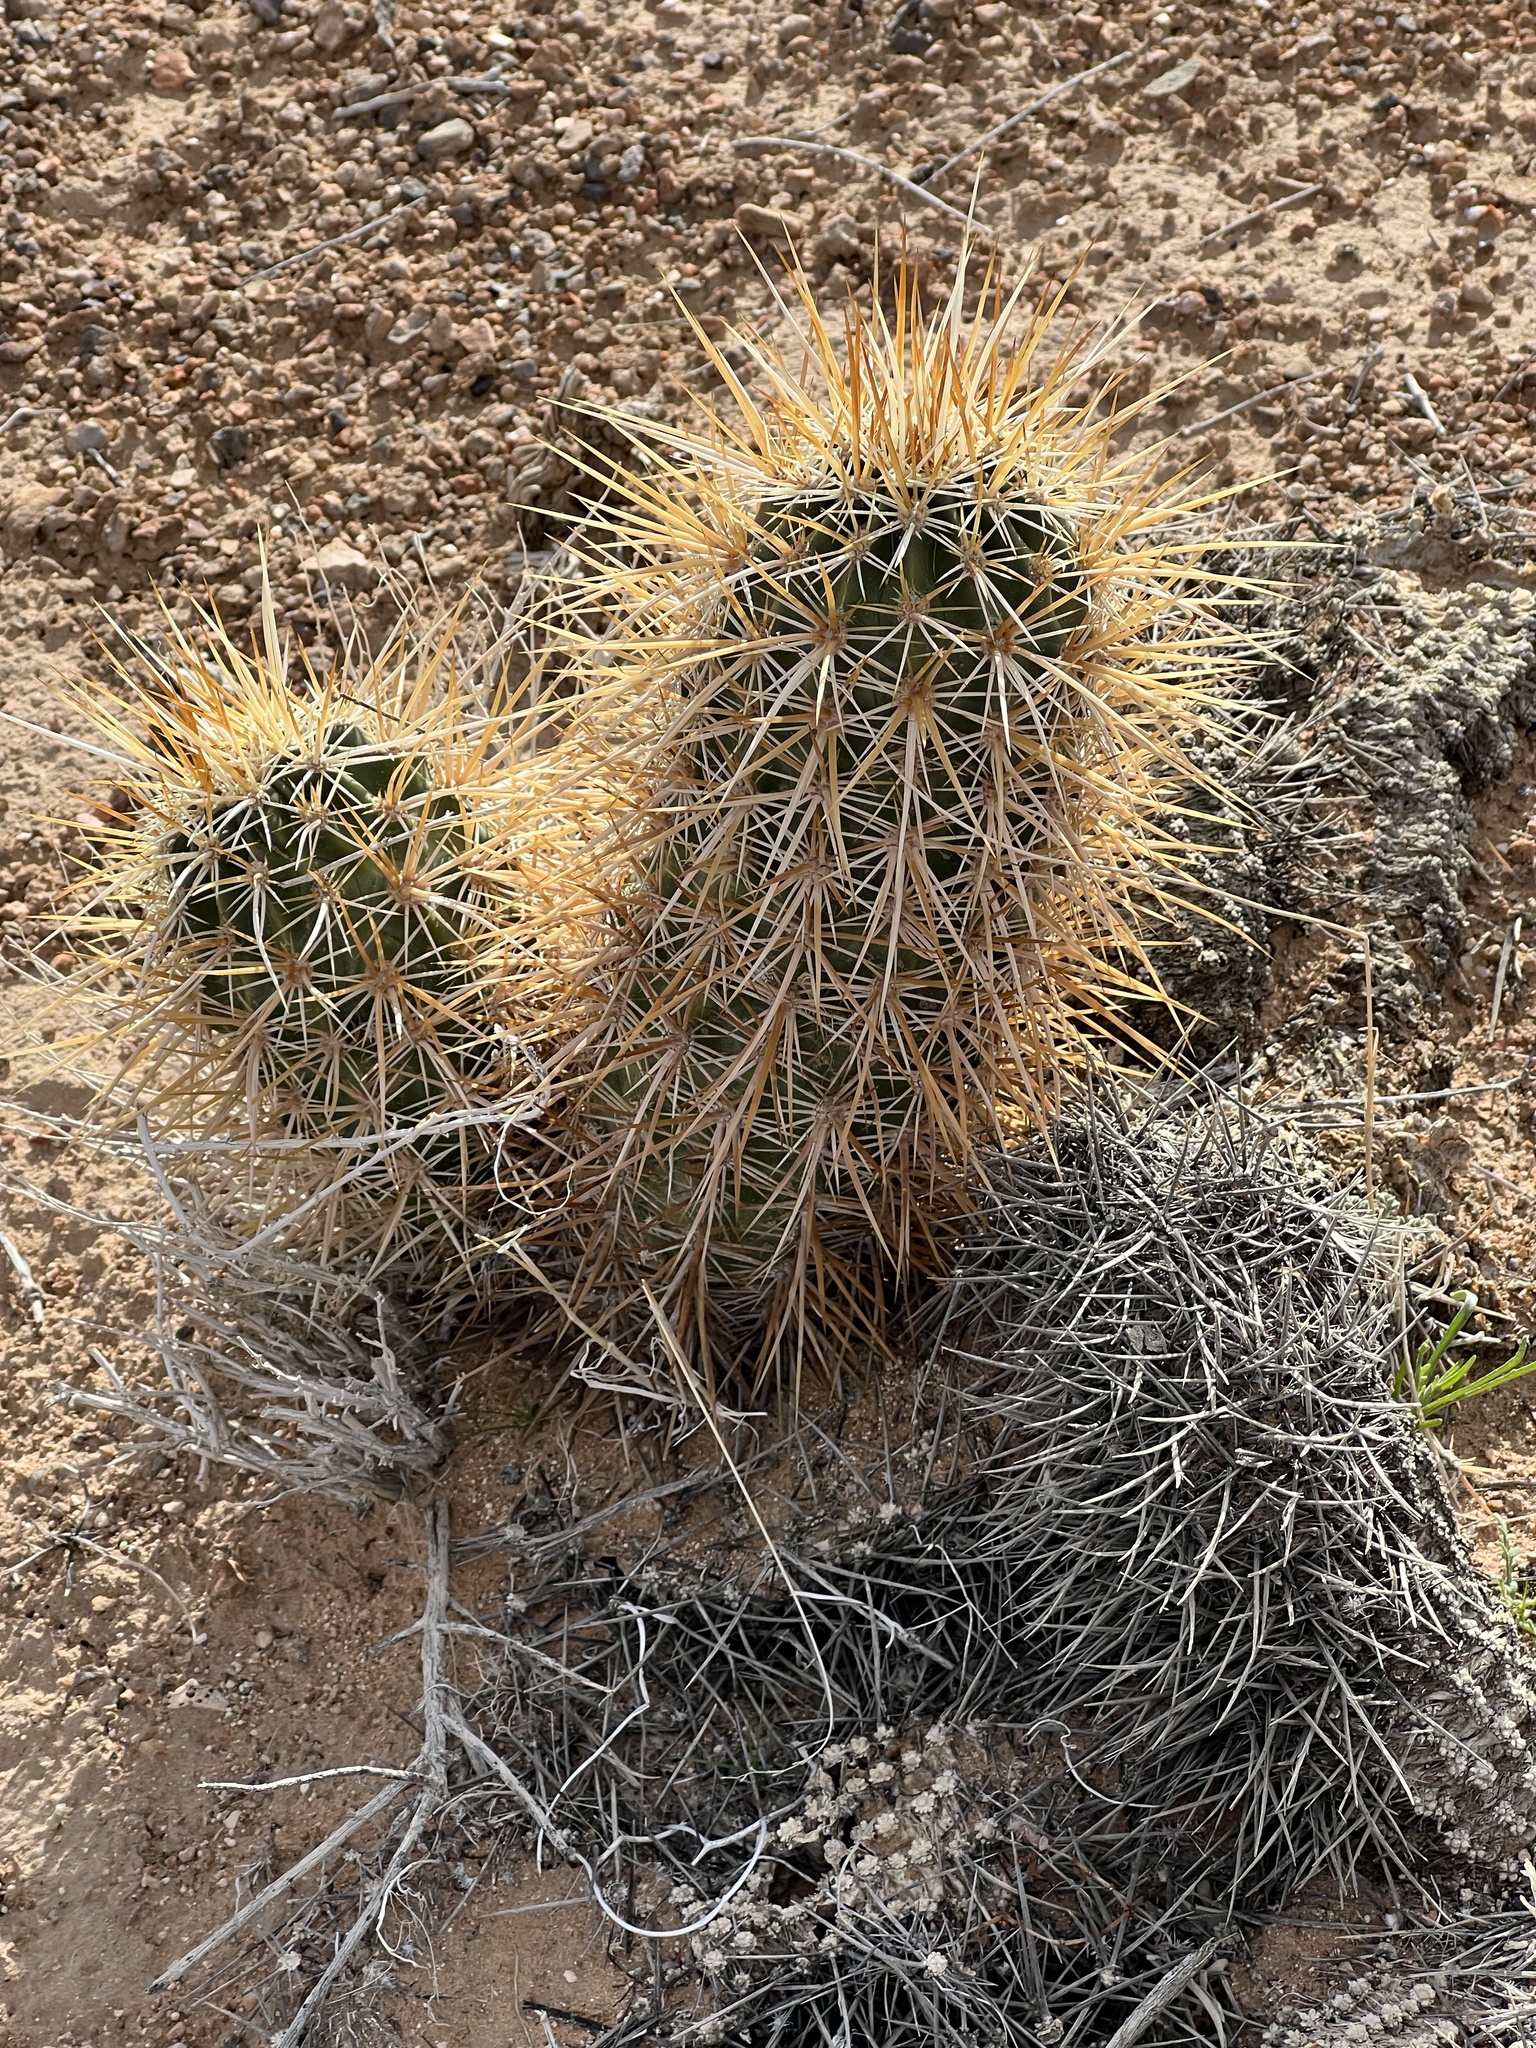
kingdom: Plantae
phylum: Tracheophyta
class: Magnoliopsida
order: Caryophyllales
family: Cactaceae
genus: Echinocereus
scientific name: Echinocereus engelmannii
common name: Engelmann's hedgehog cactus
